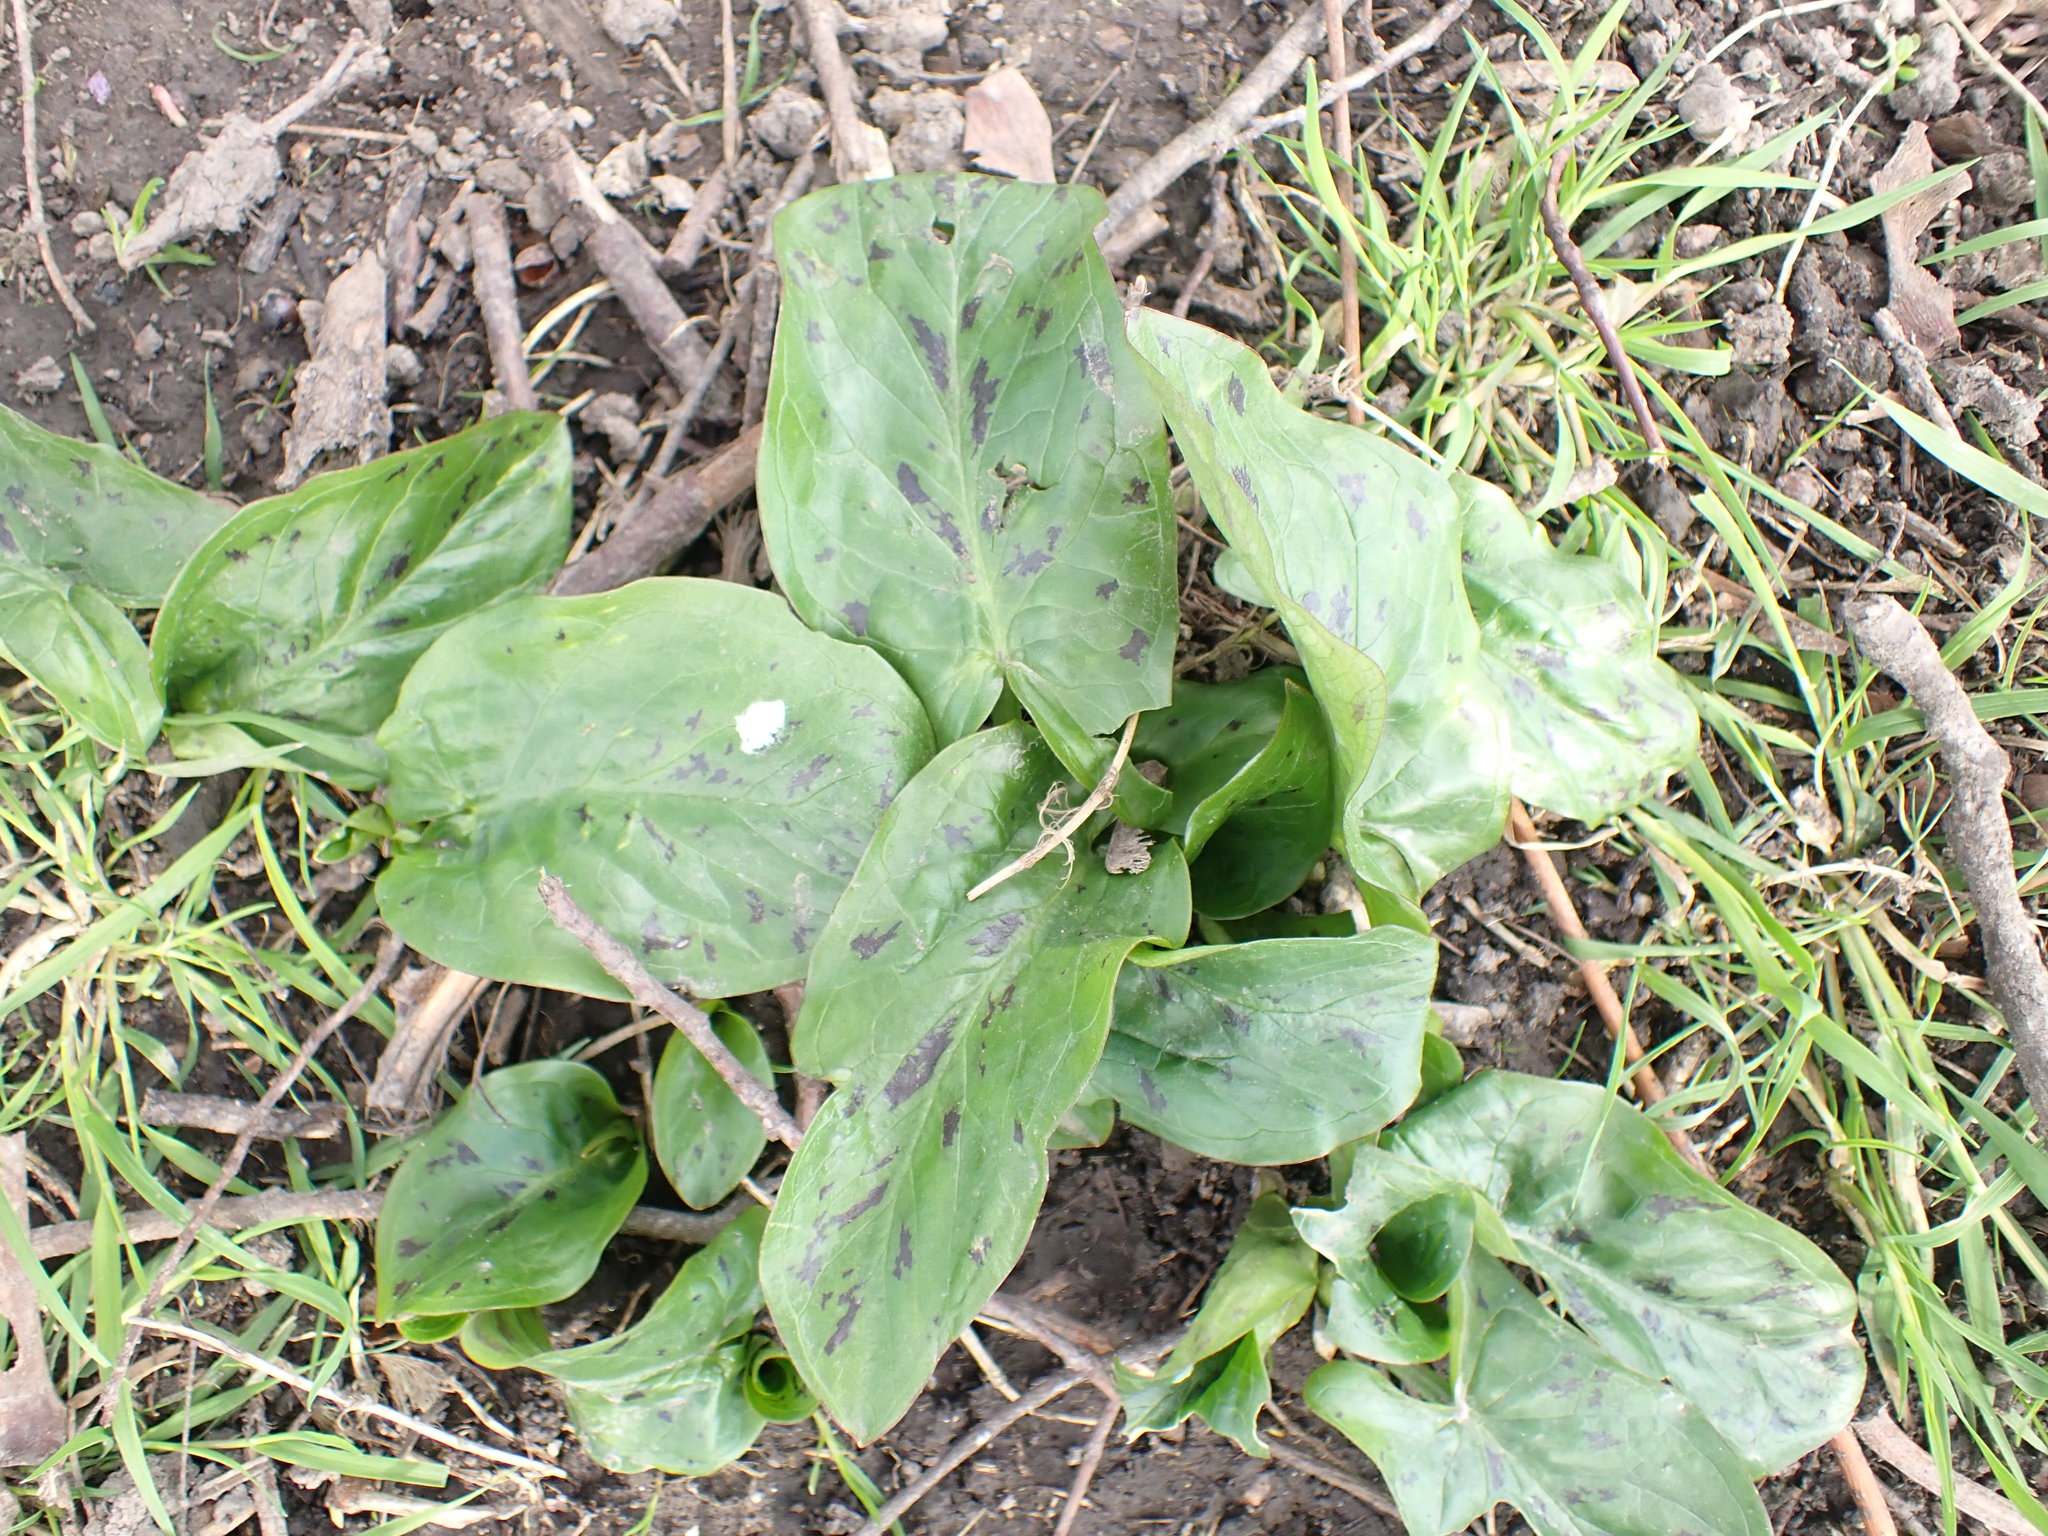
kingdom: Plantae
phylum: Tracheophyta
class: Liliopsida
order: Alismatales
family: Araceae
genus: Arum
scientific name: Arum maculatum
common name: Lords-and-ladies
